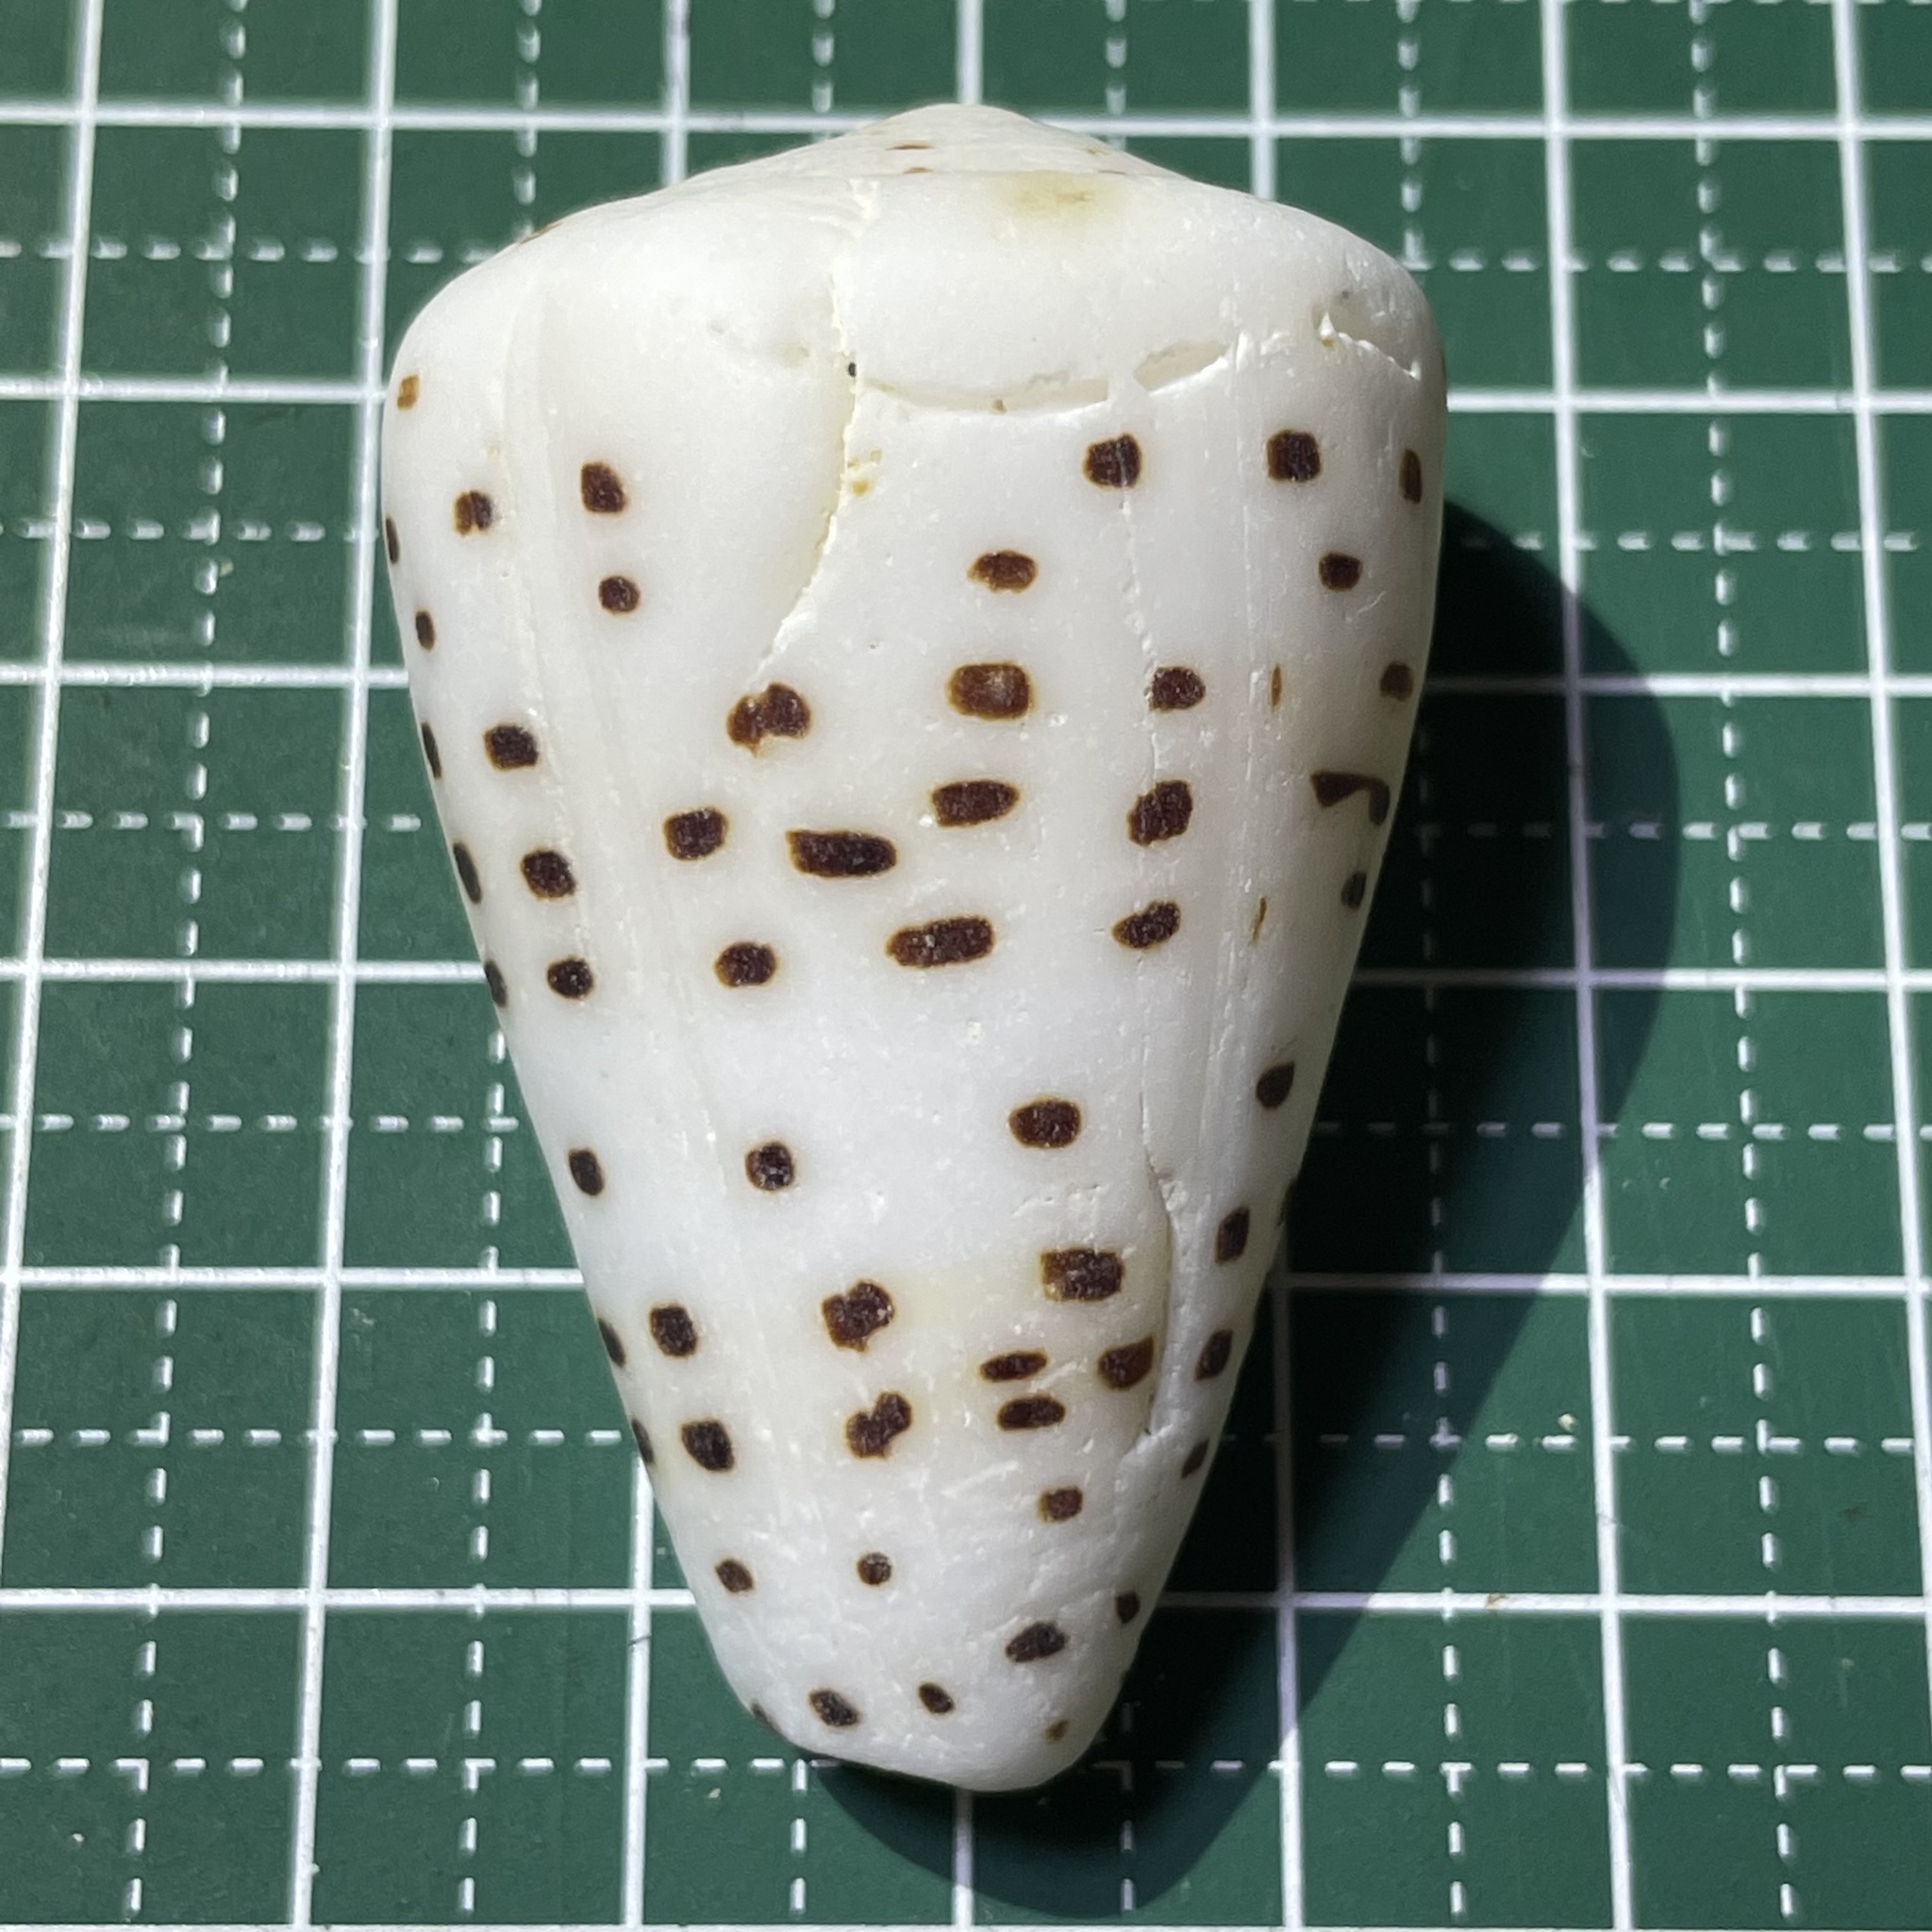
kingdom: Animalia
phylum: Mollusca
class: Gastropoda
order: Neogastropoda
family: Conidae
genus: Conus
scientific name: Conus eburneus
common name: Ivory cone
